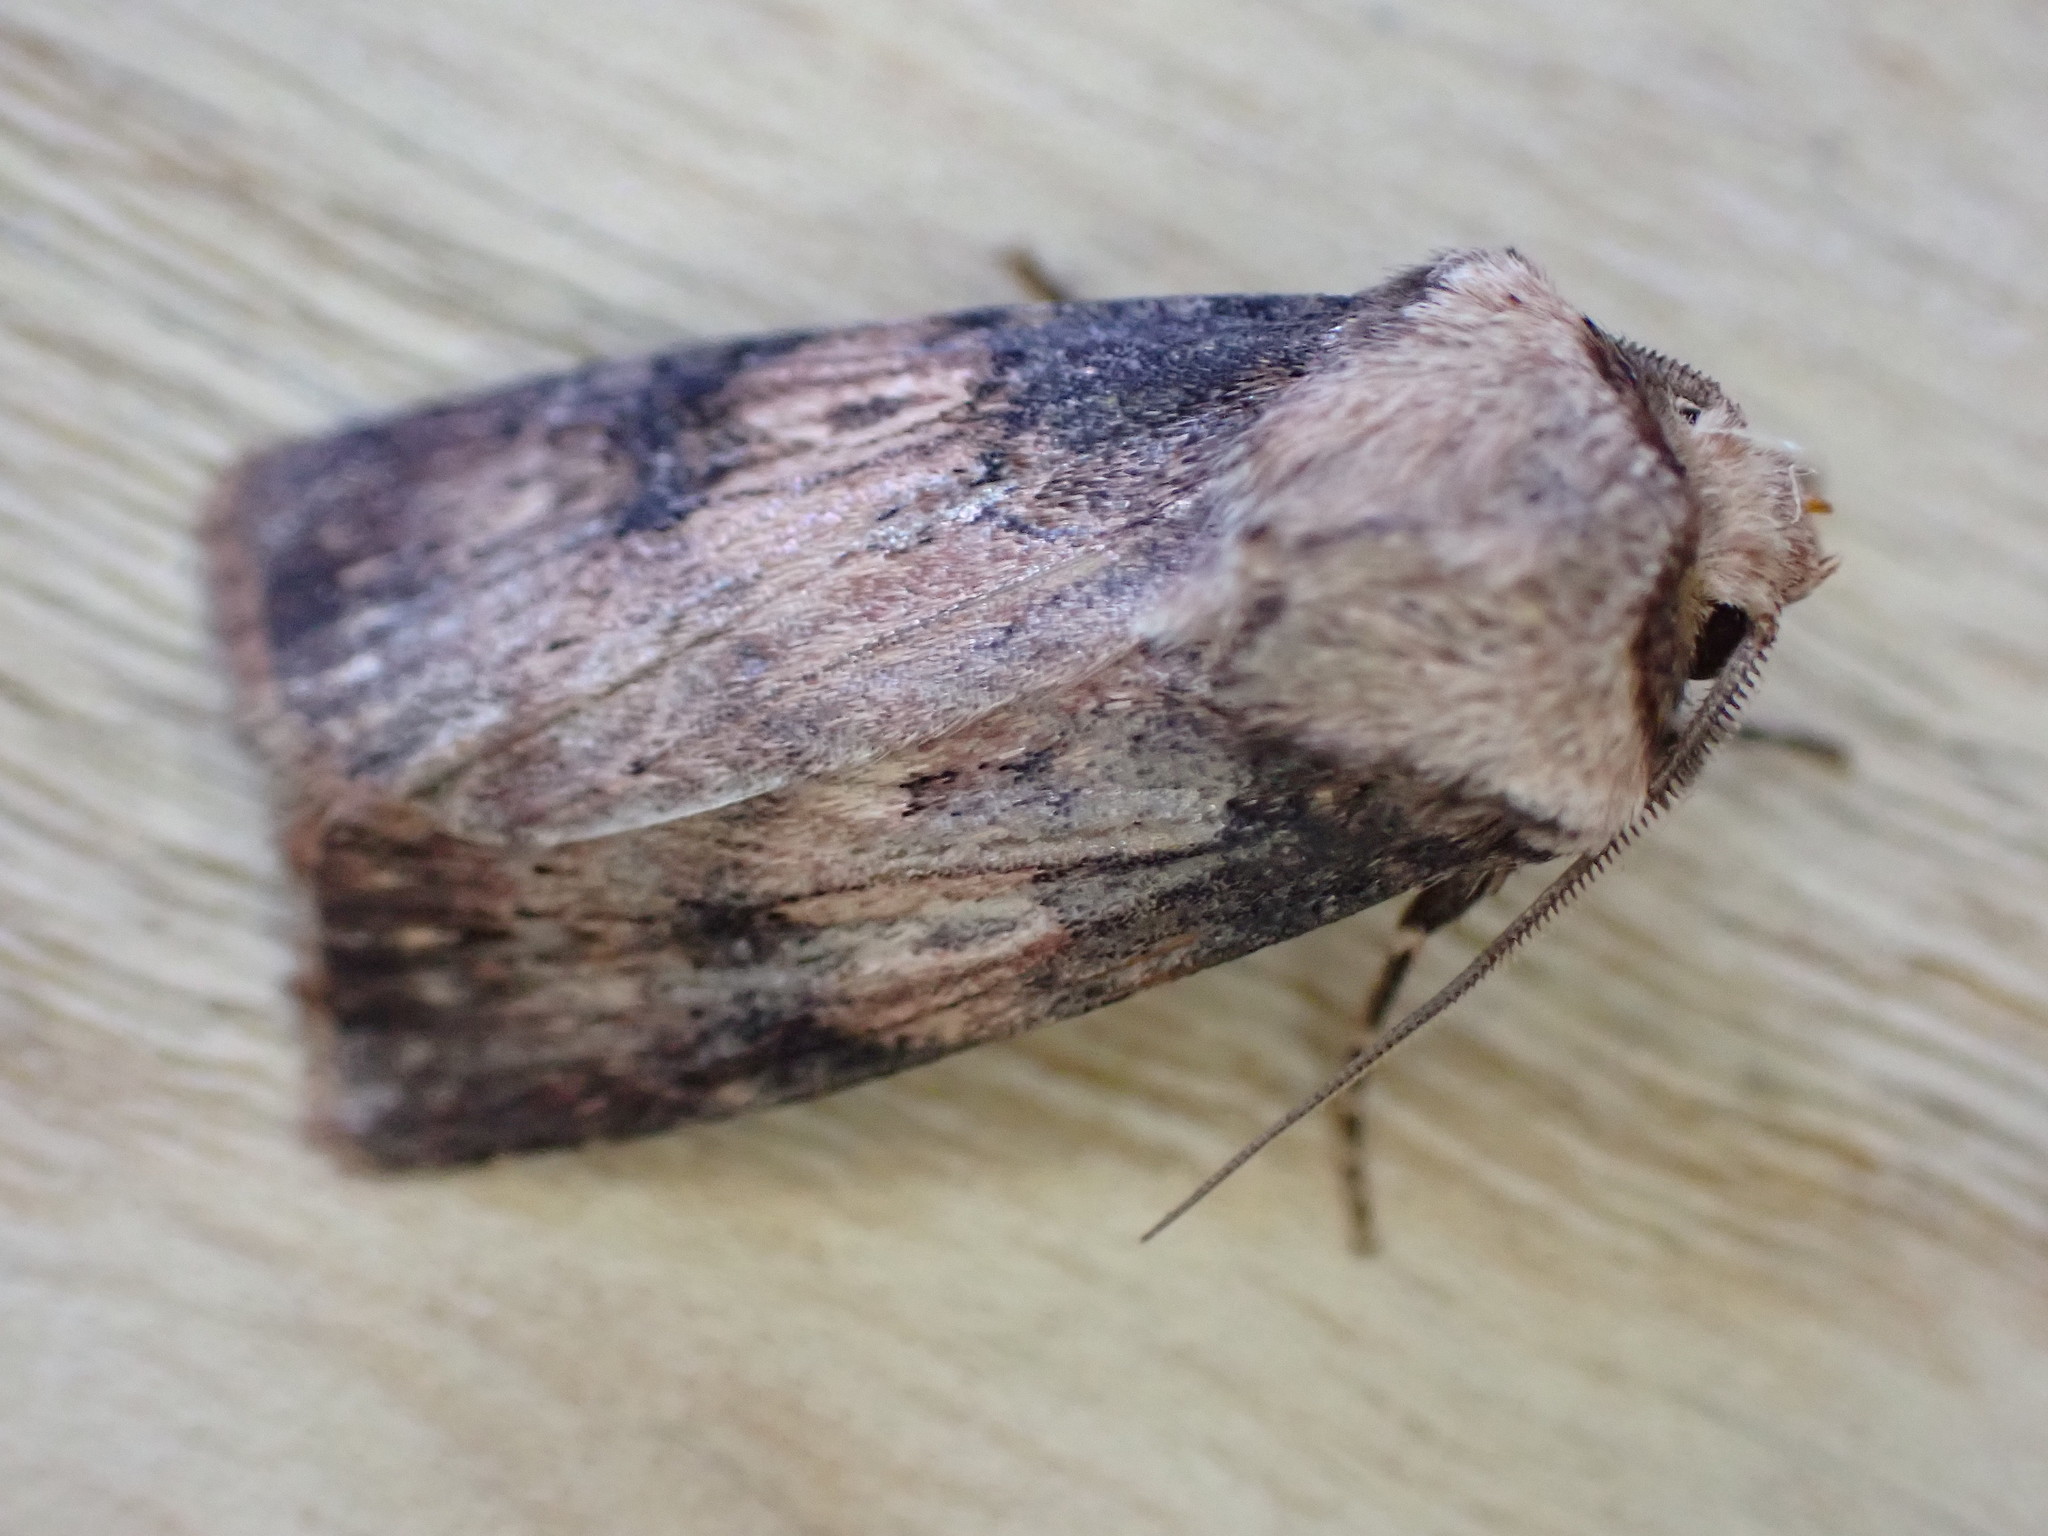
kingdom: Animalia
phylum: Arthropoda
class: Insecta
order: Lepidoptera
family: Noctuidae
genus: Agrotis
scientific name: Agrotis puta
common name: Shuttle-shaped dart
